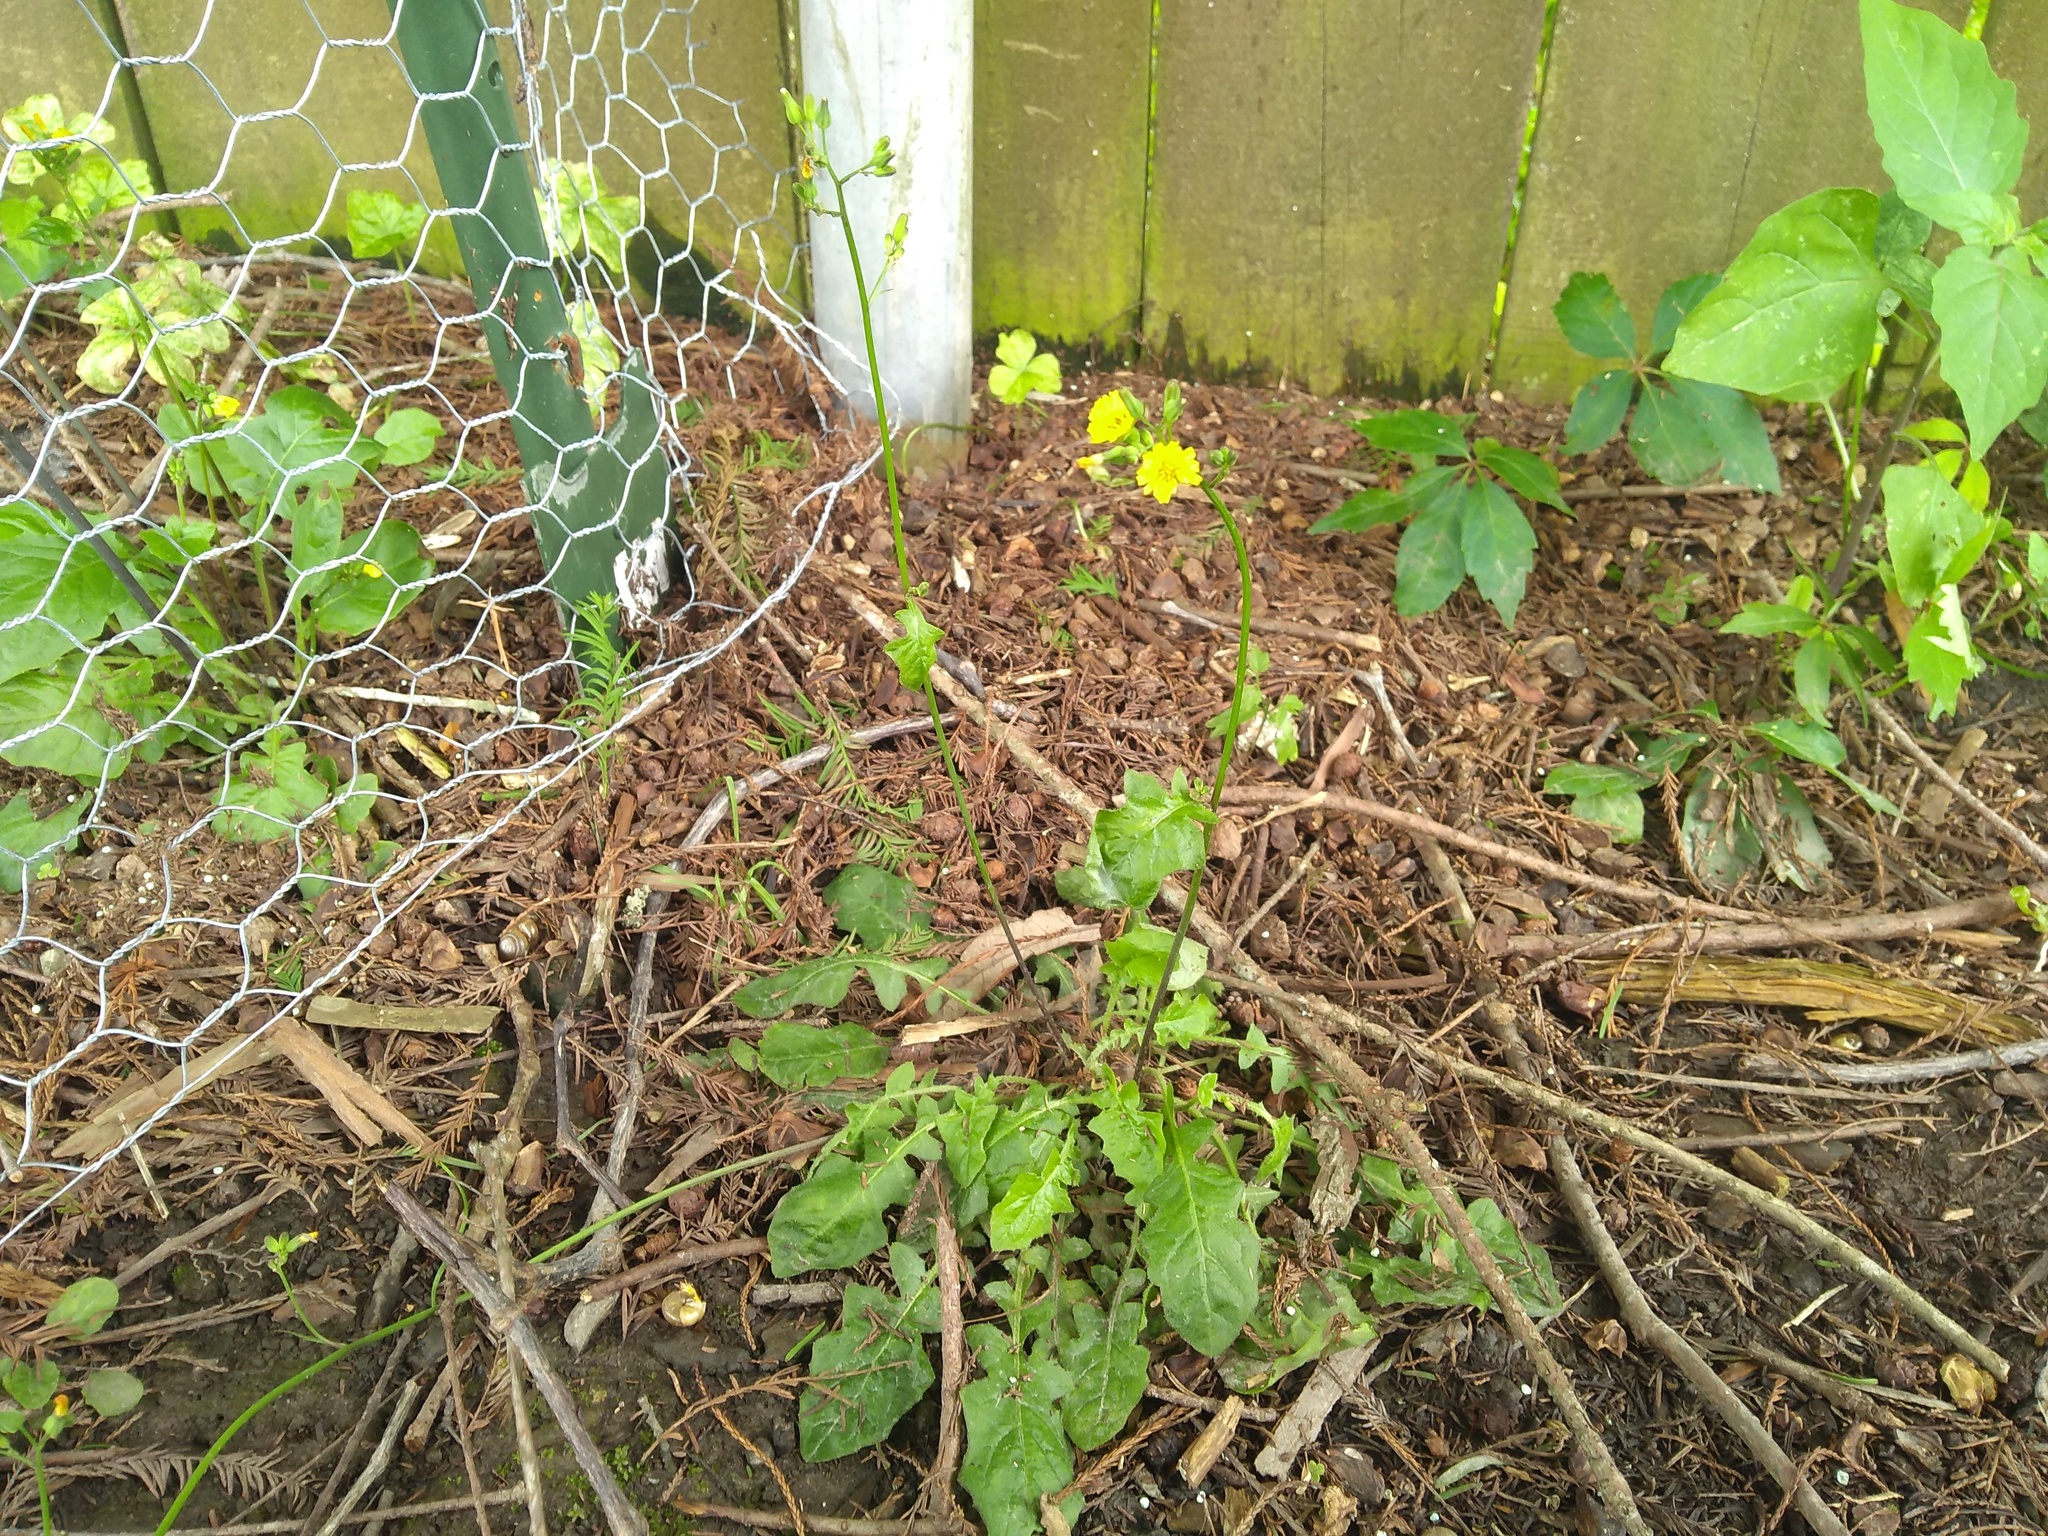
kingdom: Plantae
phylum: Tracheophyta
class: Magnoliopsida
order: Asterales
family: Asteraceae
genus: Youngia
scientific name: Youngia japonica
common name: Oriental false hawksbeard
